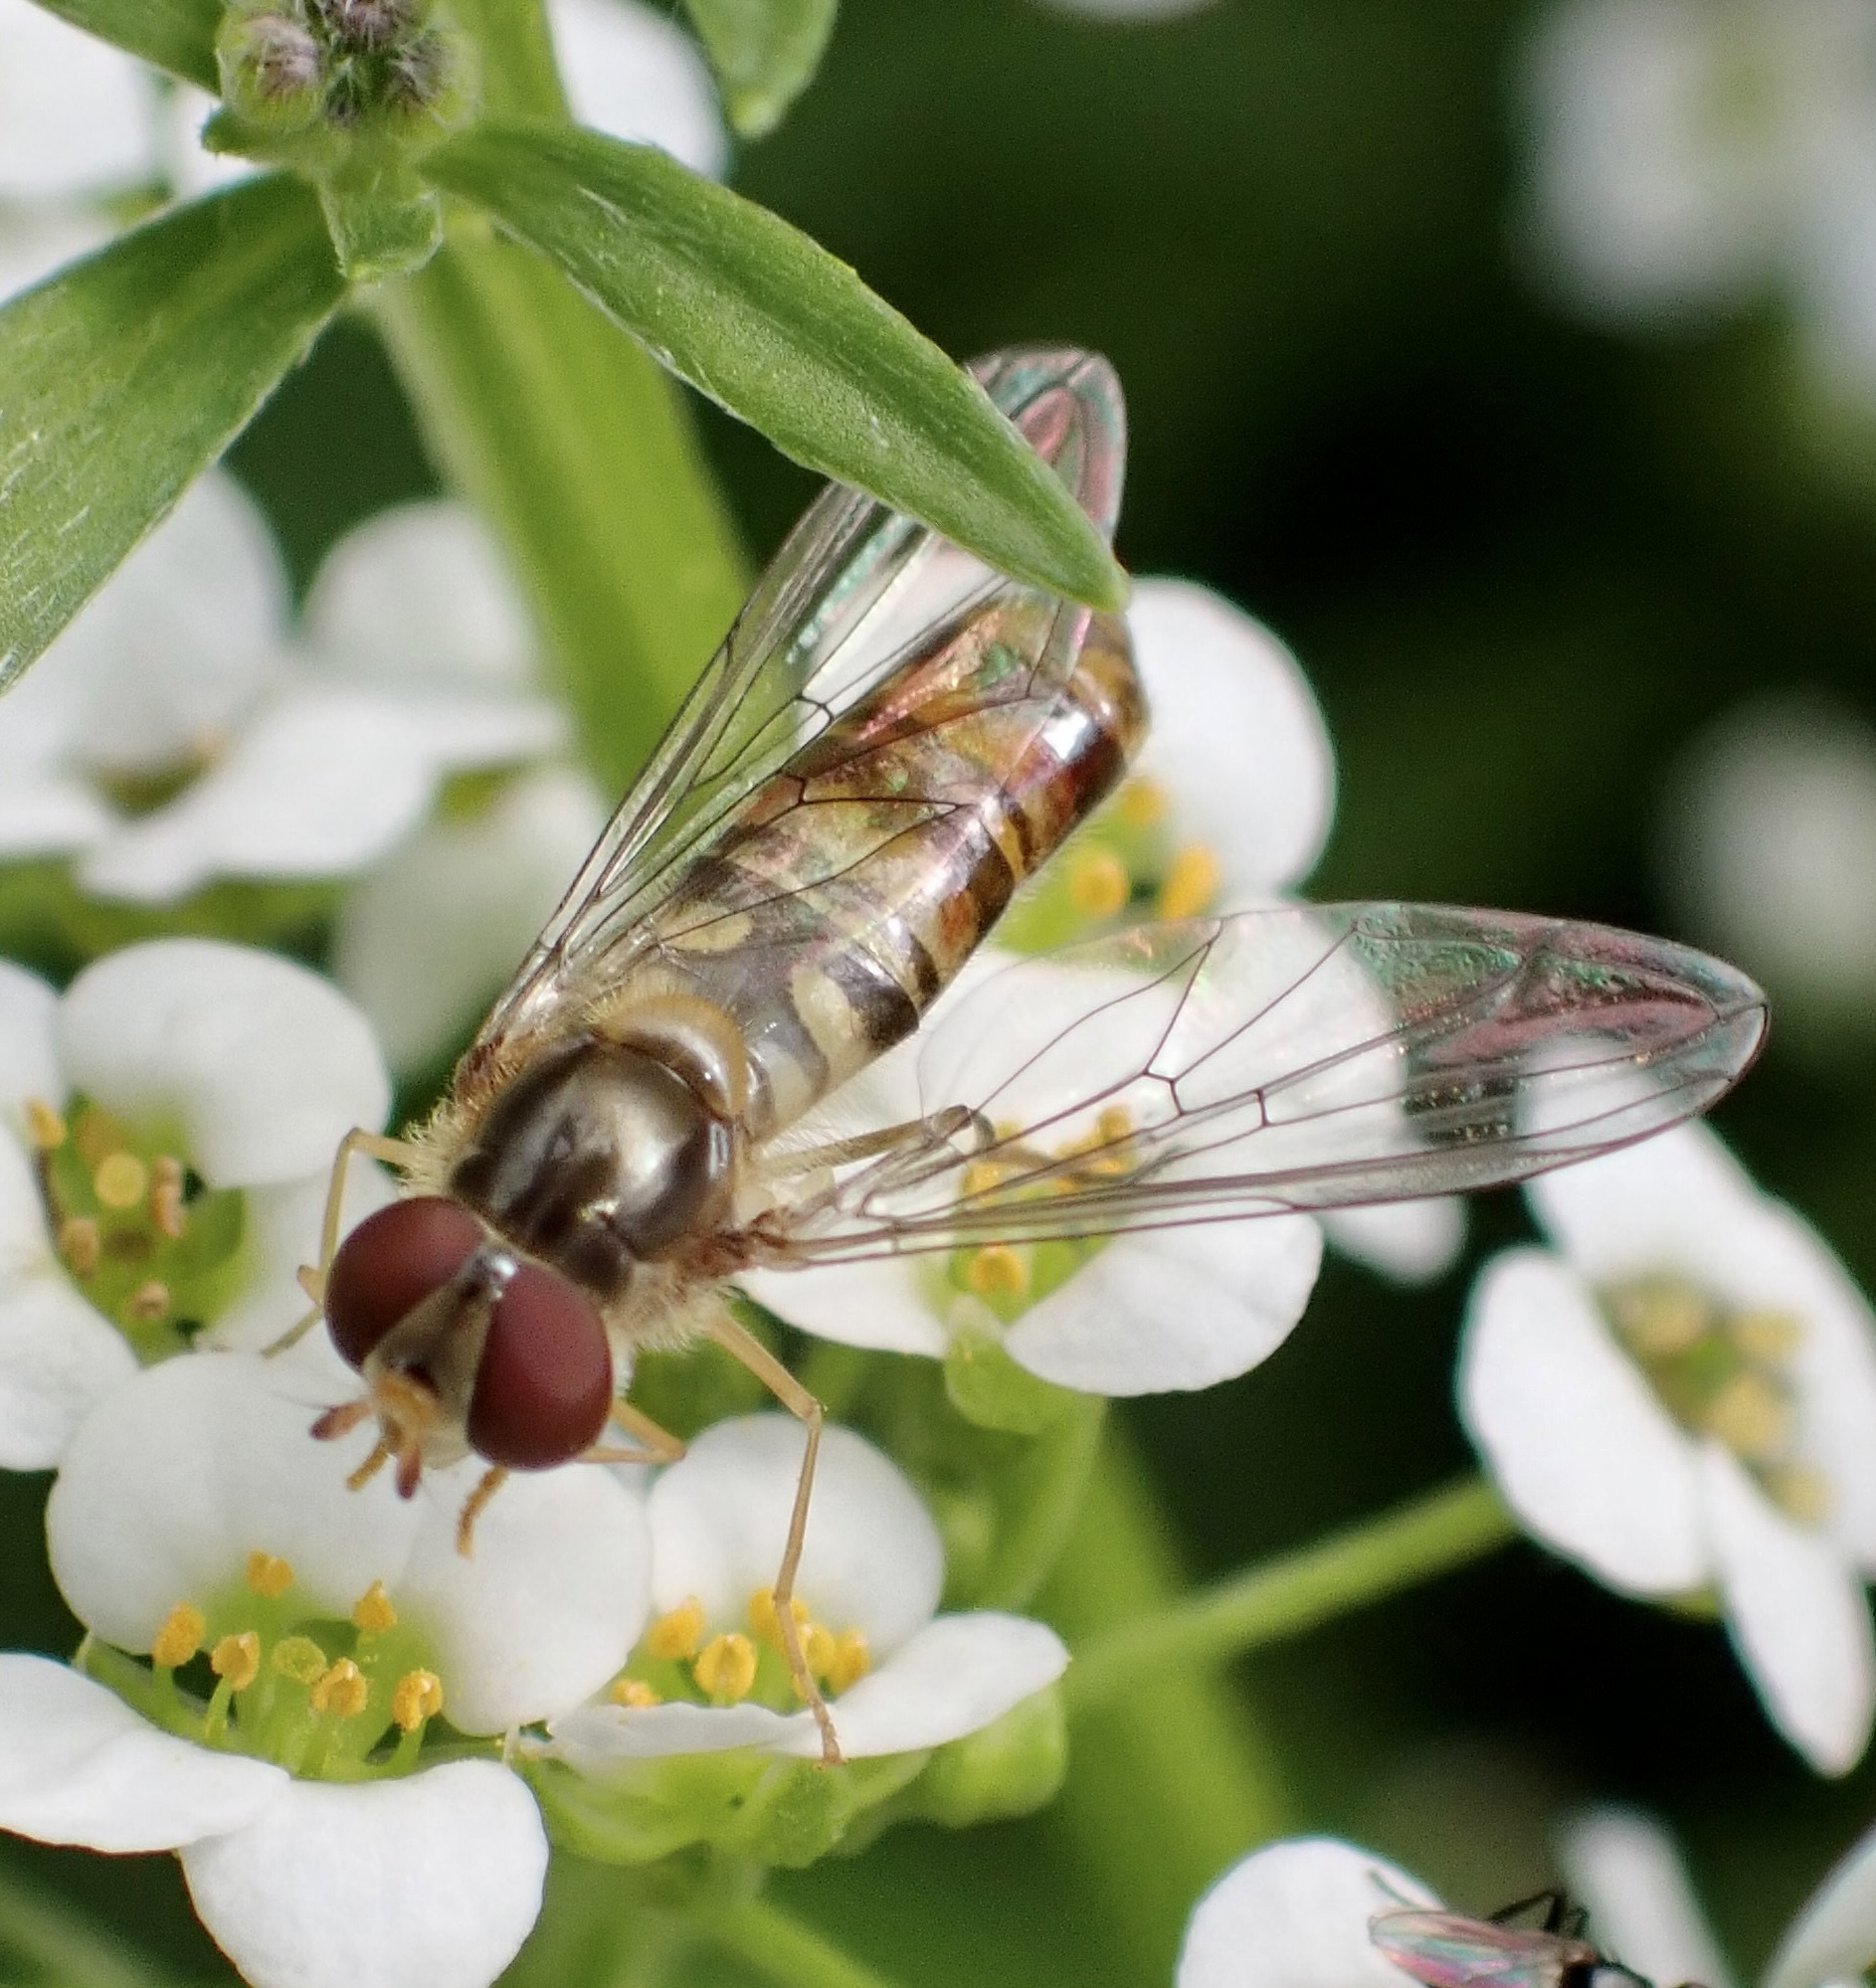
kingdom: Animalia
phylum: Arthropoda
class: Insecta
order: Diptera
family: Syrphidae
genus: Episyrphus
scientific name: Episyrphus balteatus
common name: Marmalade hoverfly
